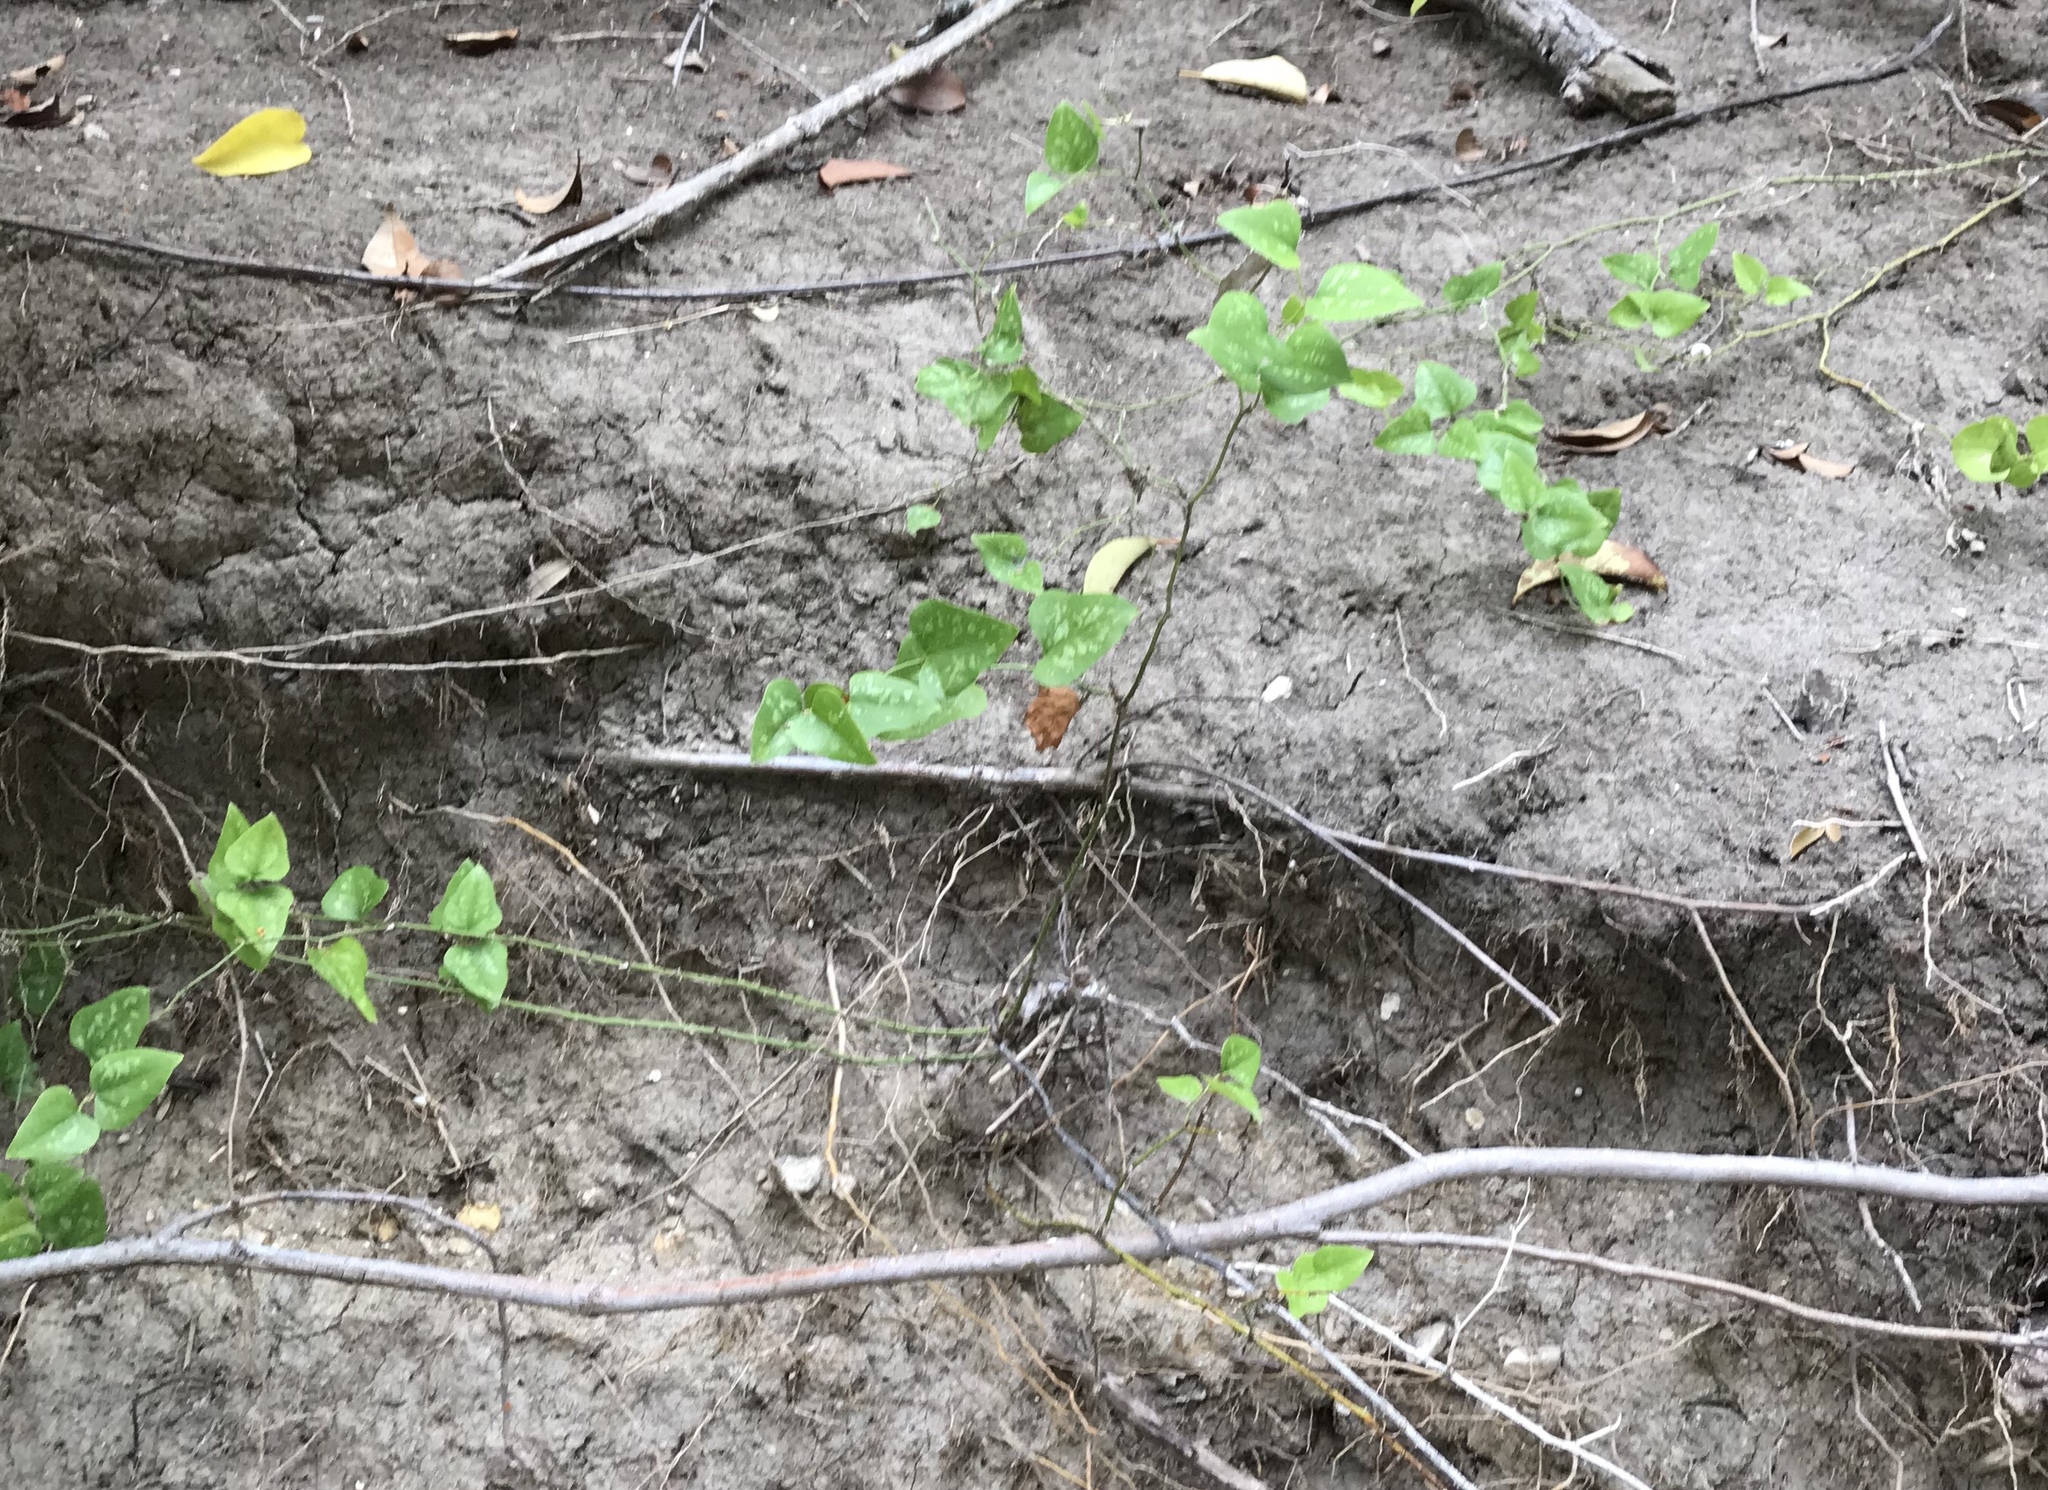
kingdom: Plantae
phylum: Tracheophyta
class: Liliopsida
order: Liliales
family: Smilacaceae
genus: Smilax
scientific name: Smilax bona-nox
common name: Catbrier
